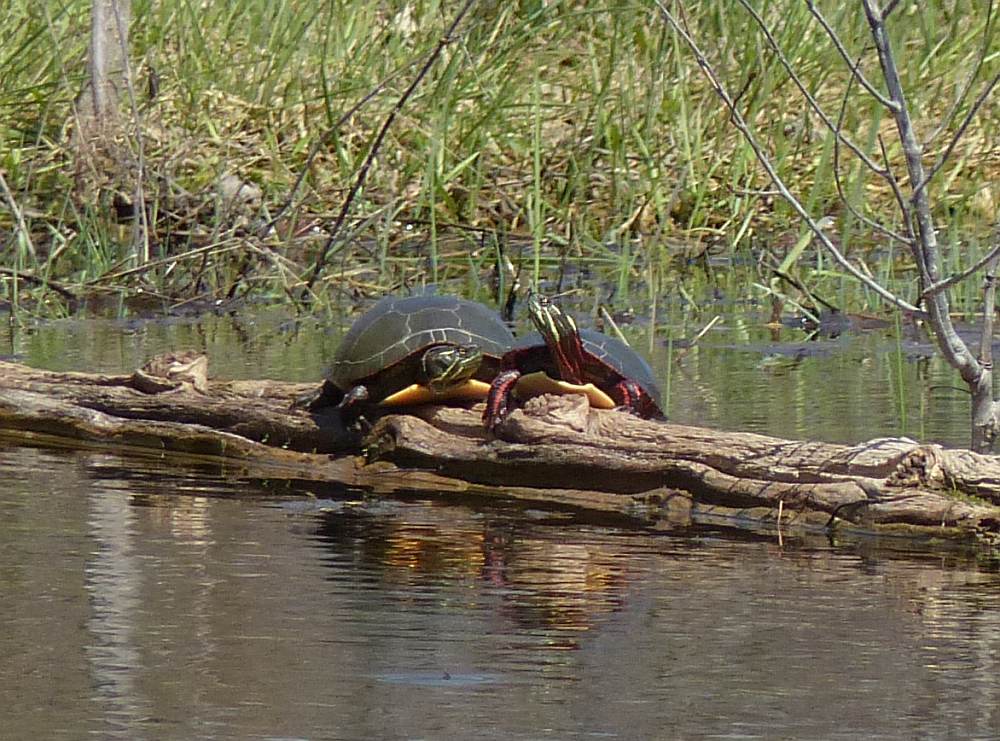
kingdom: Animalia
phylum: Chordata
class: Testudines
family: Emydidae
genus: Chrysemys
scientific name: Chrysemys picta
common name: Painted turtle
